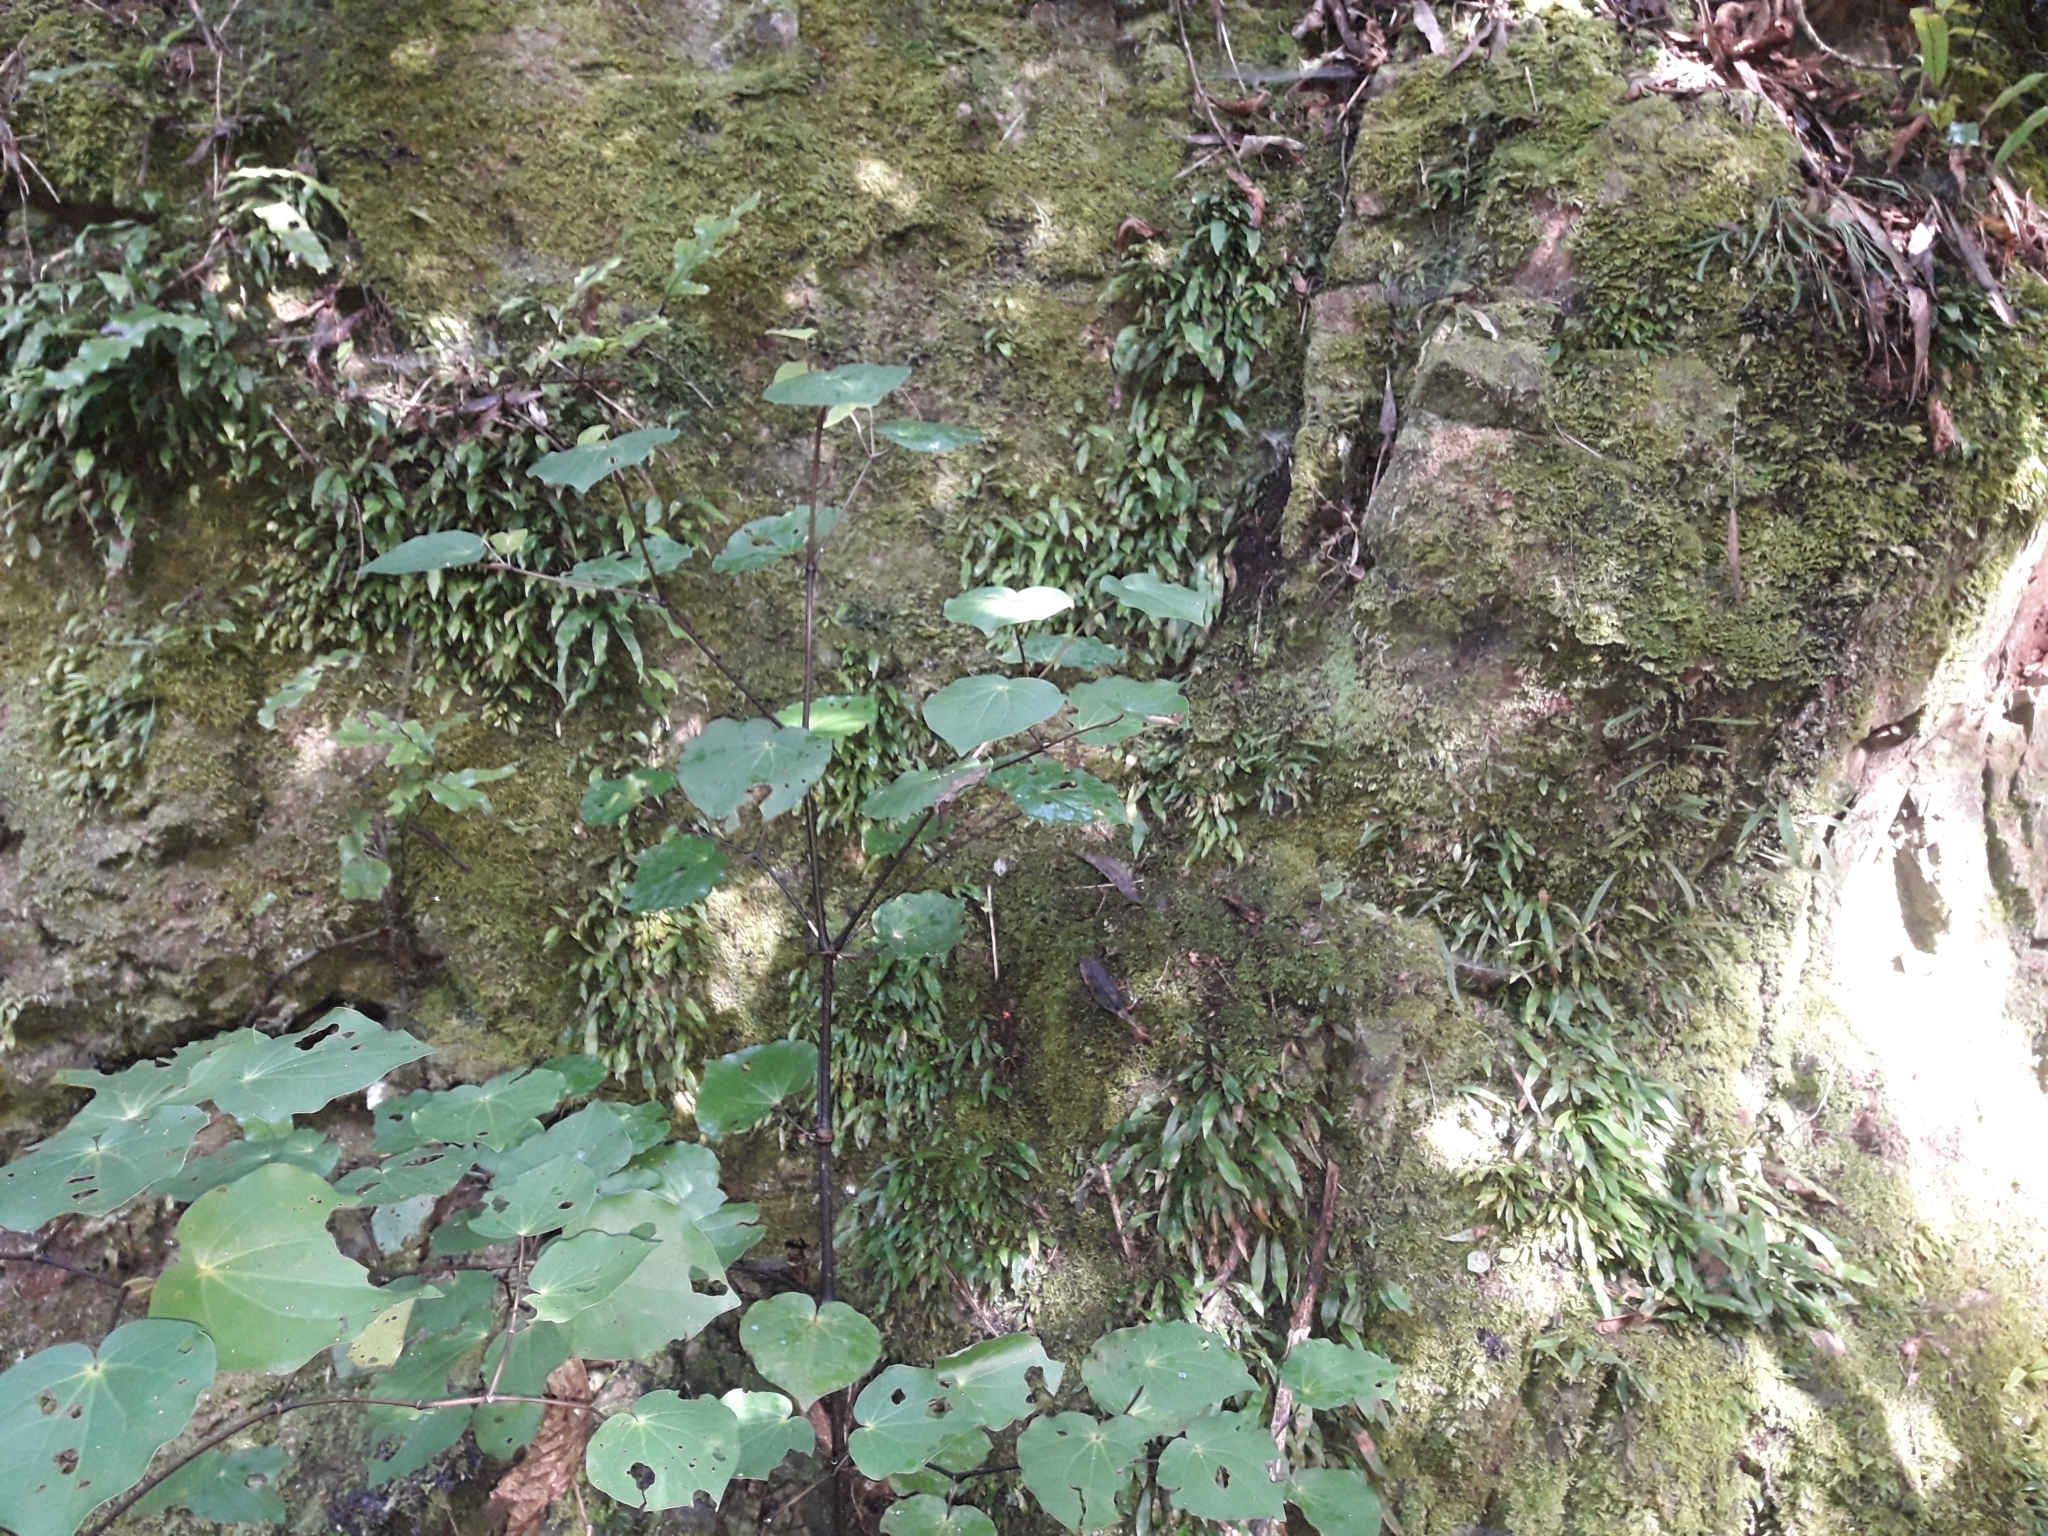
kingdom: Plantae
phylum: Tracheophyta
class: Polypodiopsida
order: Polypodiales
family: Polypodiaceae
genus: Loxogramme
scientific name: Loxogramme dictyopteris
